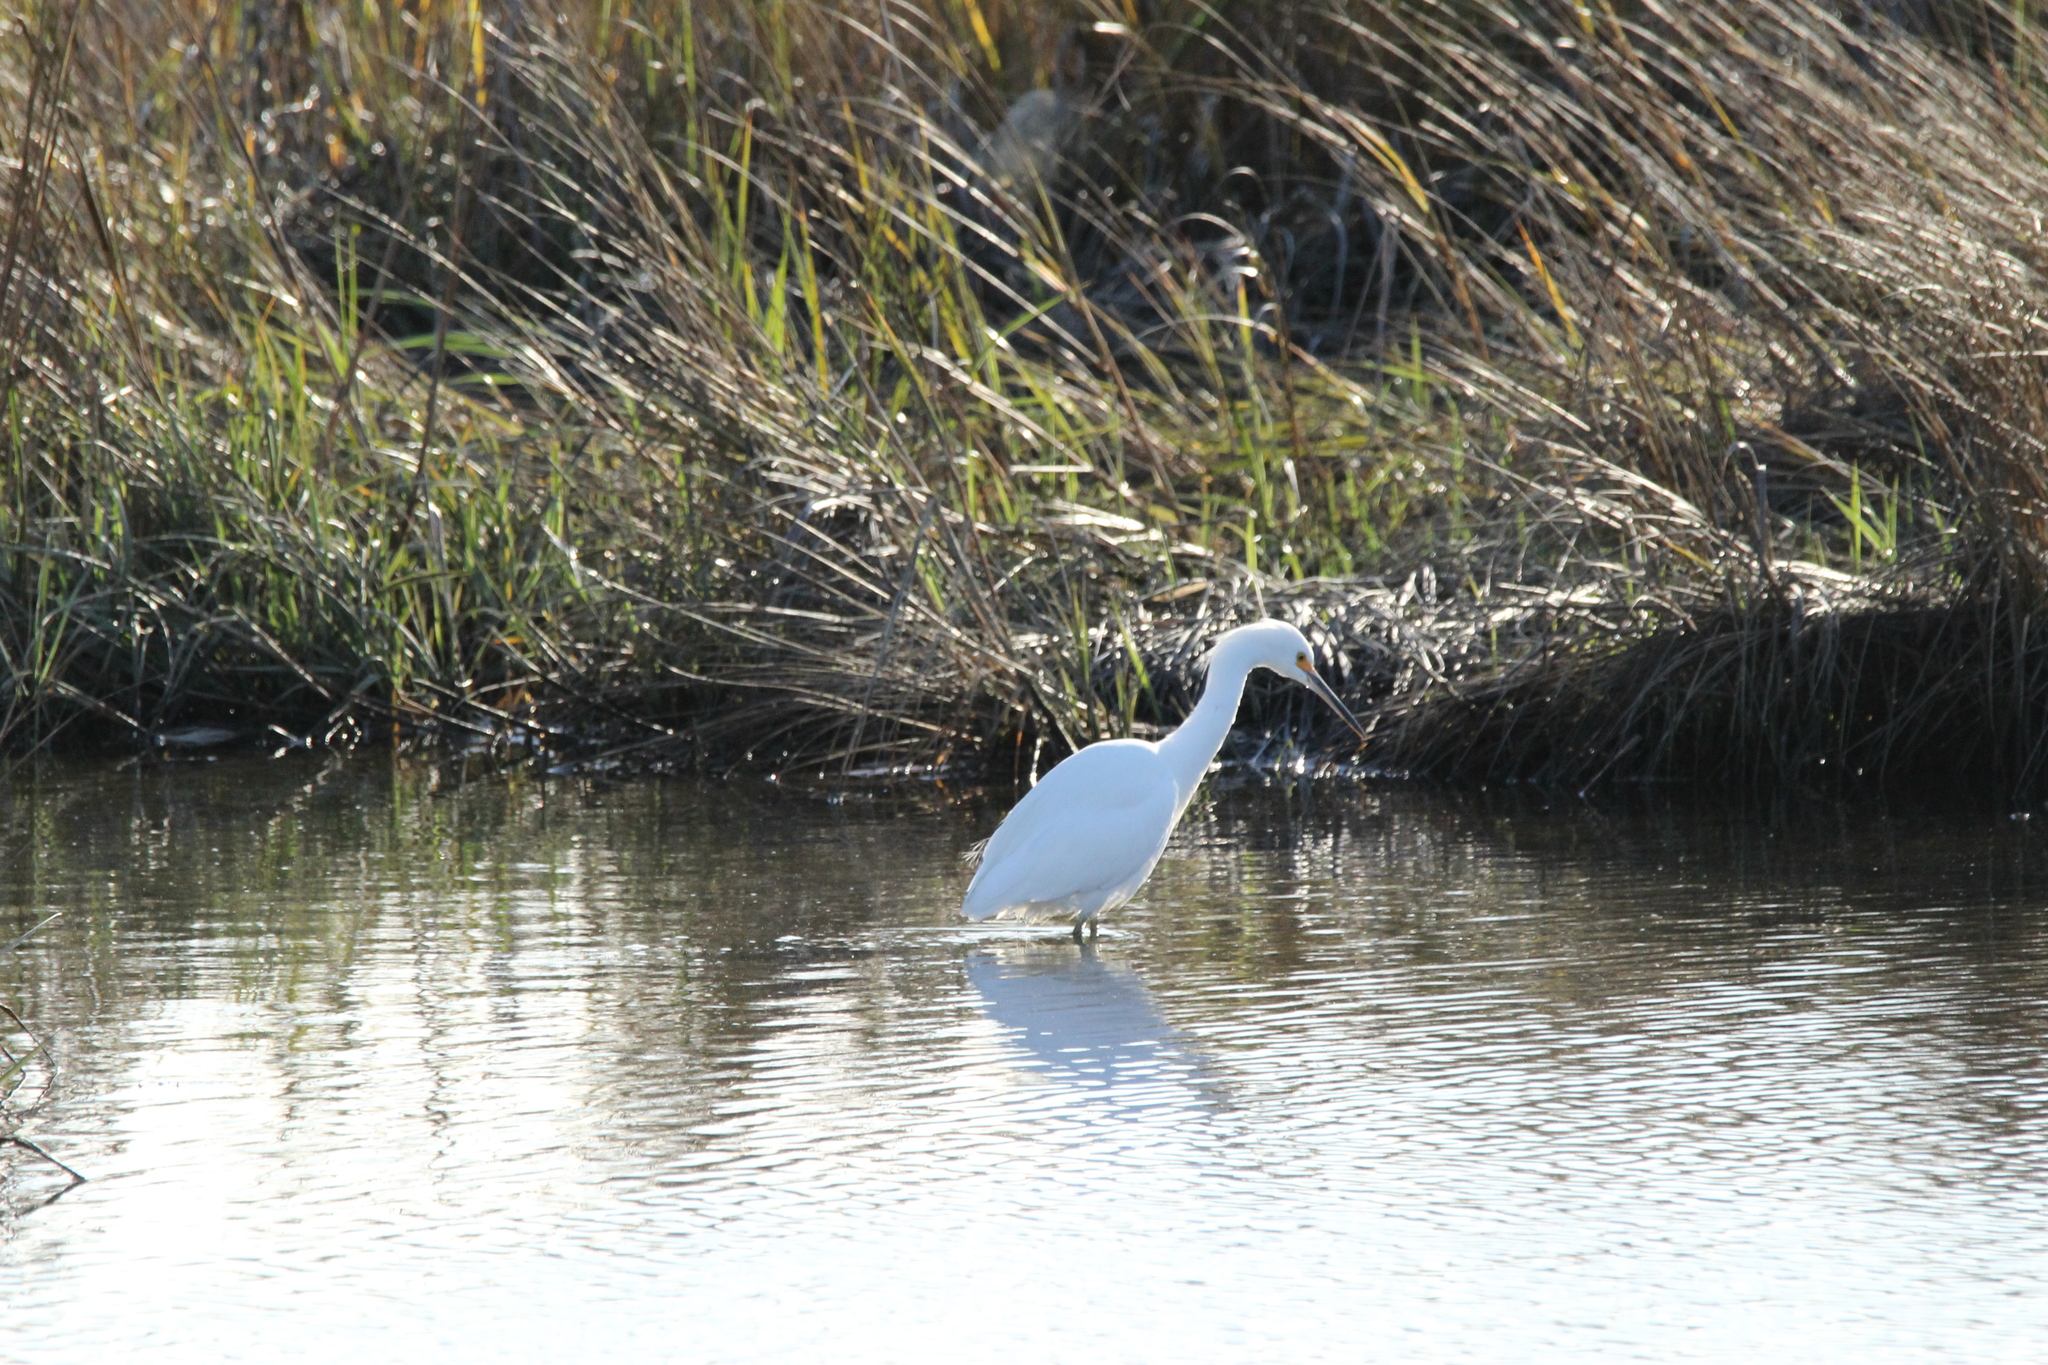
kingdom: Animalia
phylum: Chordata
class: Aves
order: Pelecaniformes
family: Ardeidae
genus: Egretta
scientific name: Egretta thula
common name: Snowy egret
